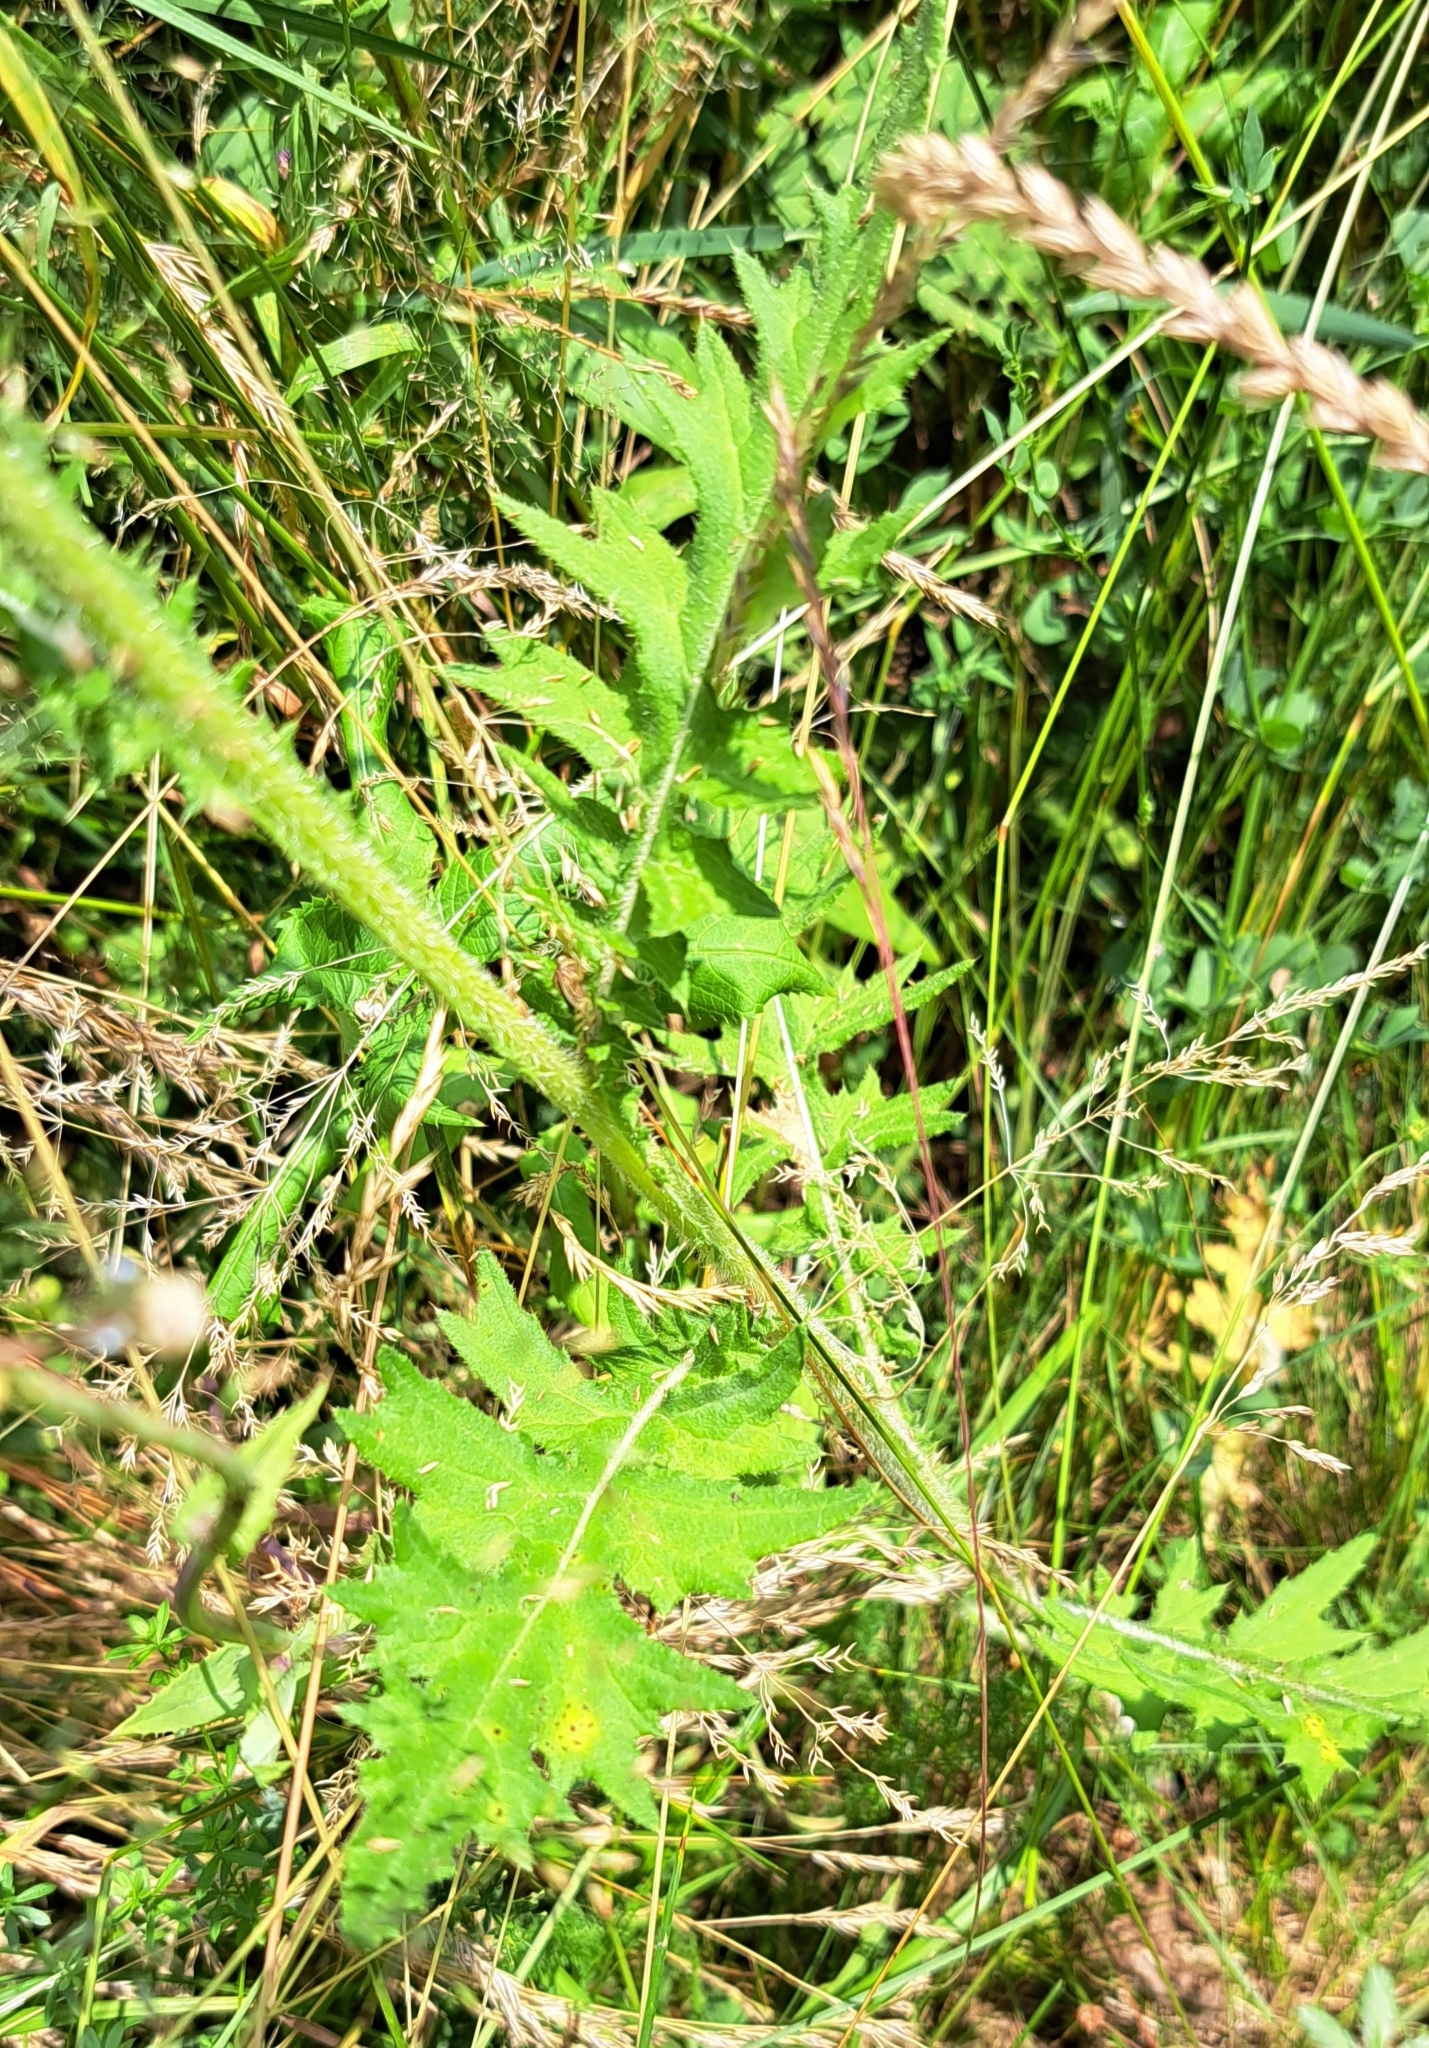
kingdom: Plantae
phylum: Tracheophyta
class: Magnoliopsida
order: Asterales
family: Asteraceae
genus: Cirsium
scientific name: Cirsium vulgare
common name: Bull thistle
